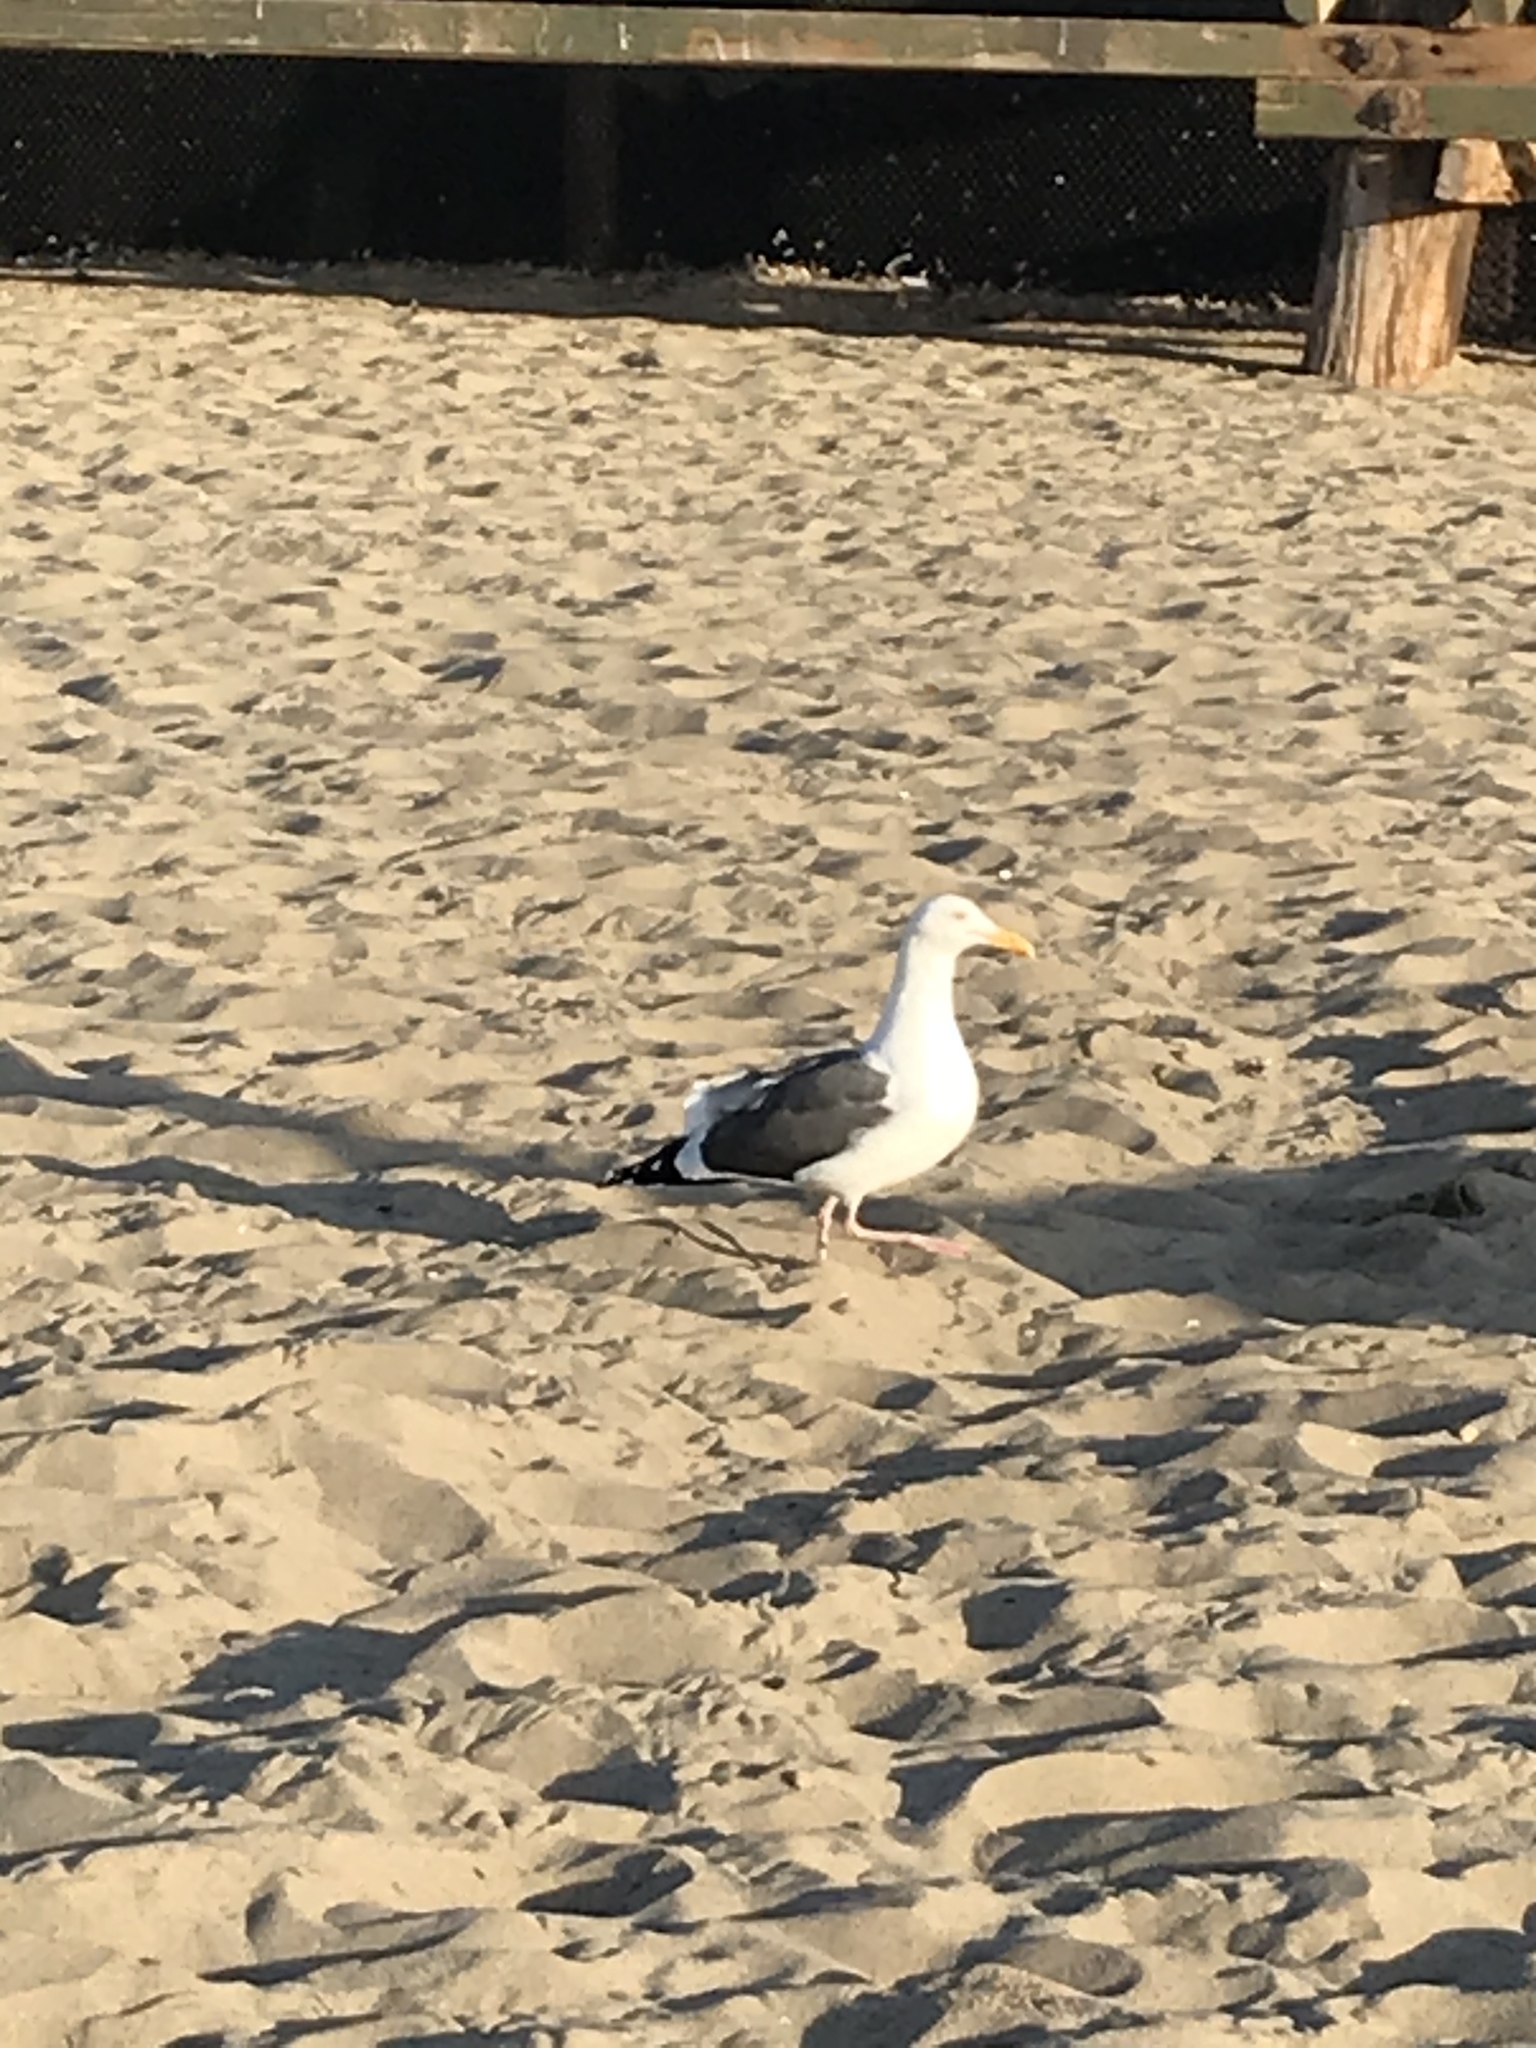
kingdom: Animalia
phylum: Chordata
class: Aves
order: Charadriiformes
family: Laridae
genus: Larus
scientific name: Larus occidentalis
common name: Western gull
